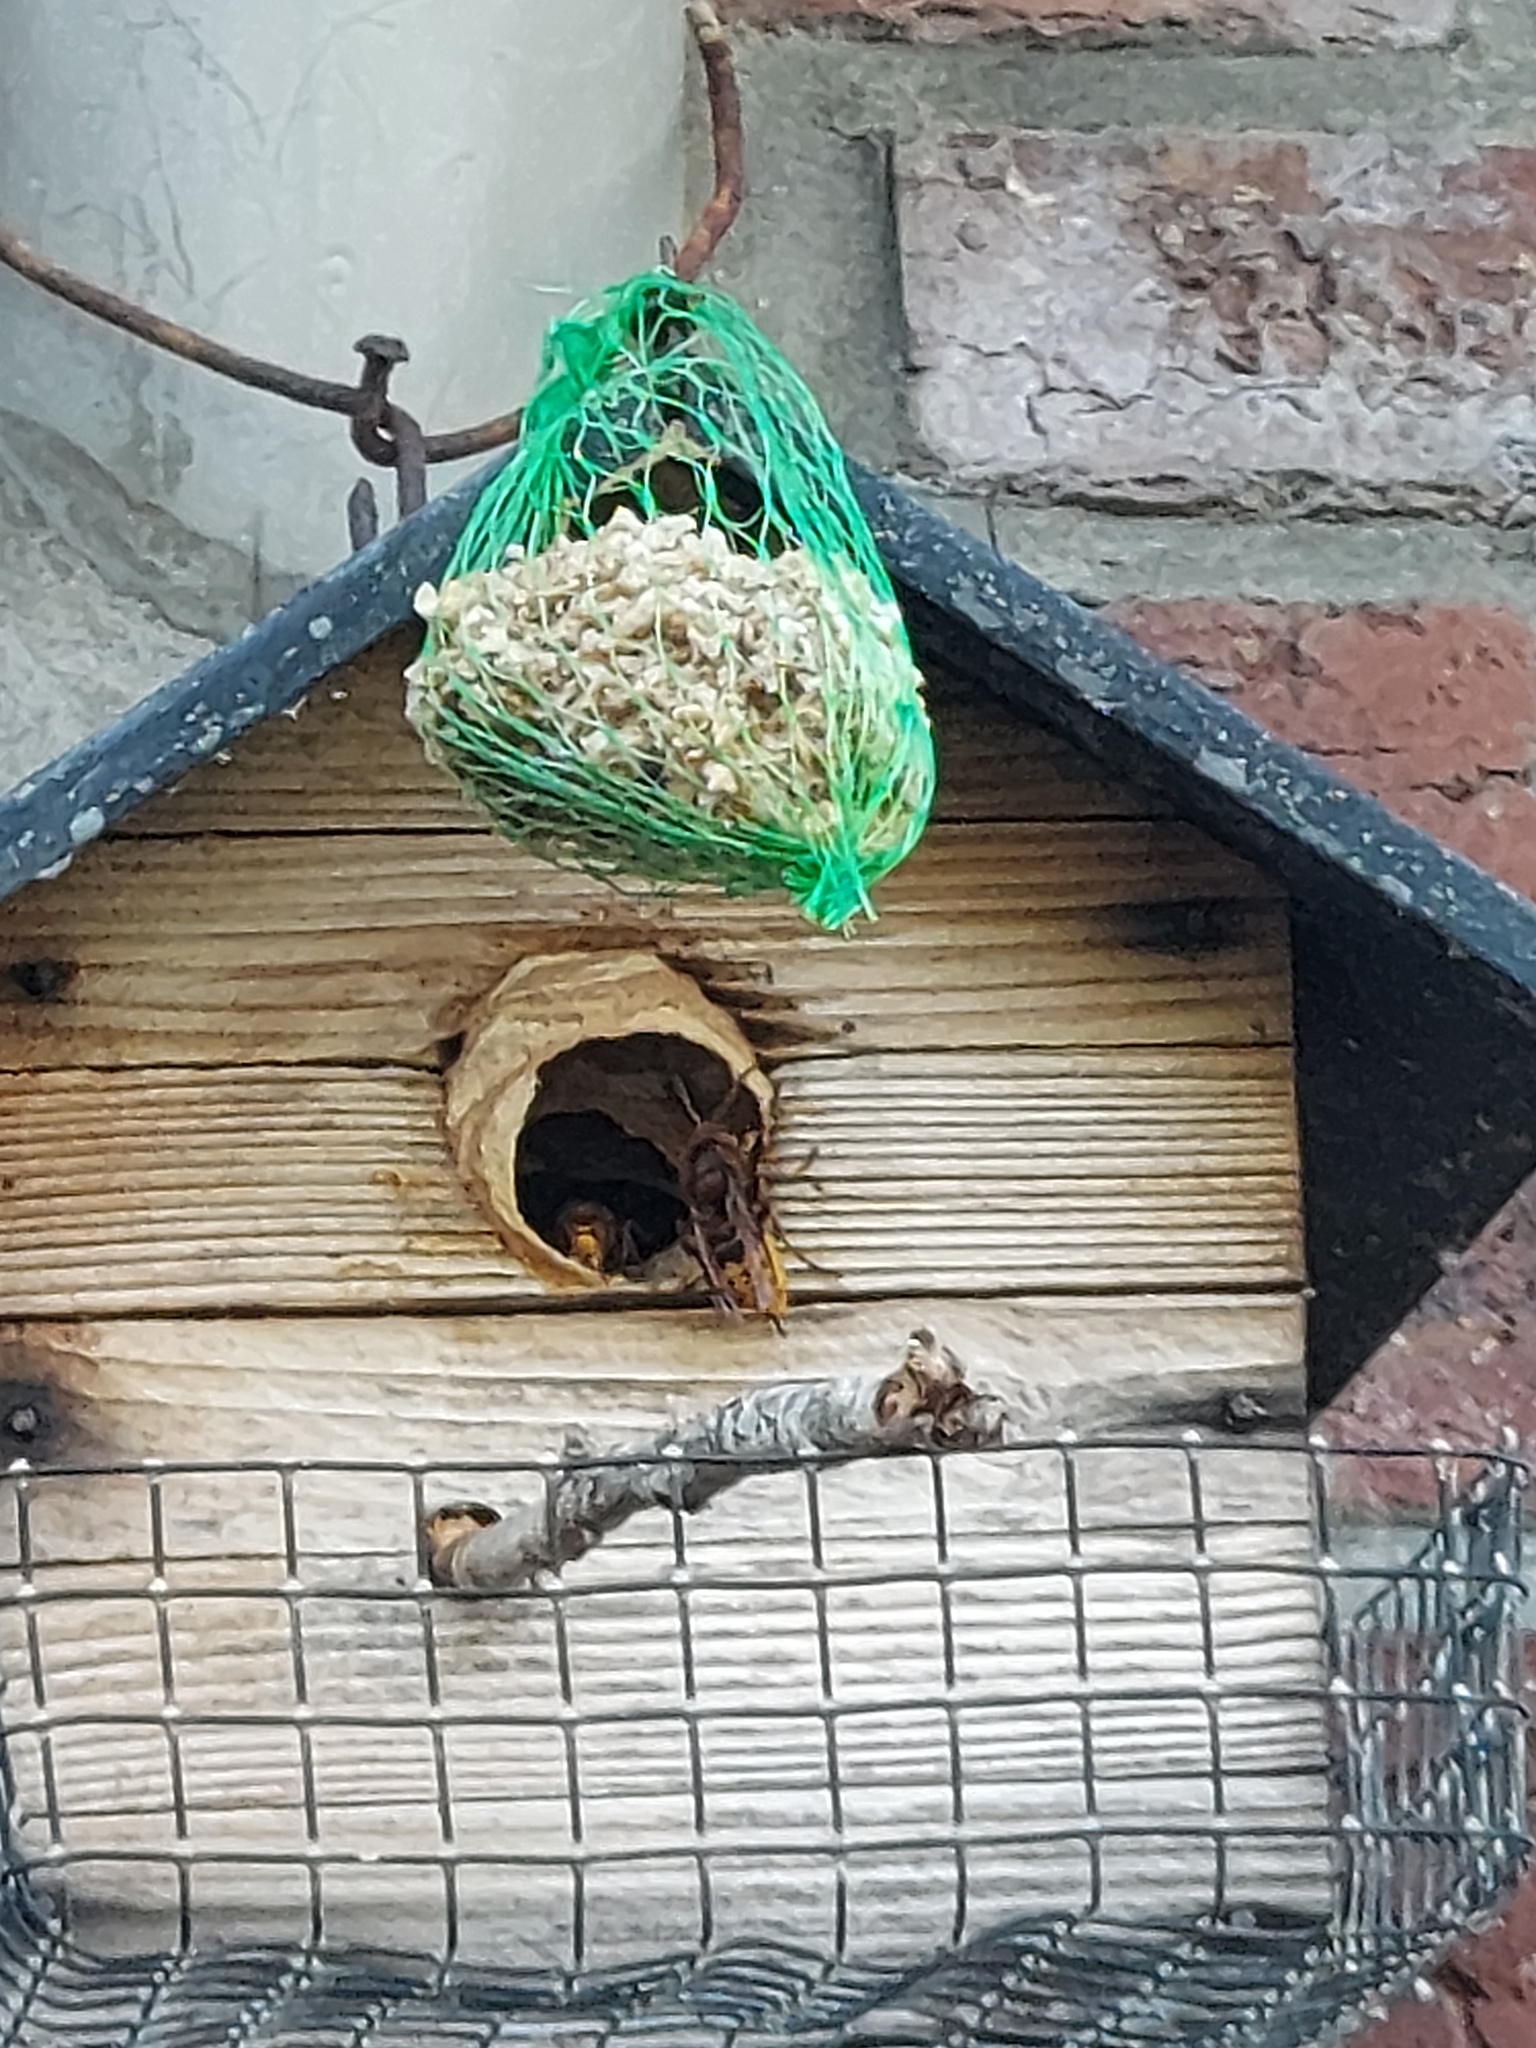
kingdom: Animalia
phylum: Arthropoda
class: Insecta
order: Hymenoptera
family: Vespidae
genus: Vespa
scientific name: Vespa crabro
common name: Hornet
